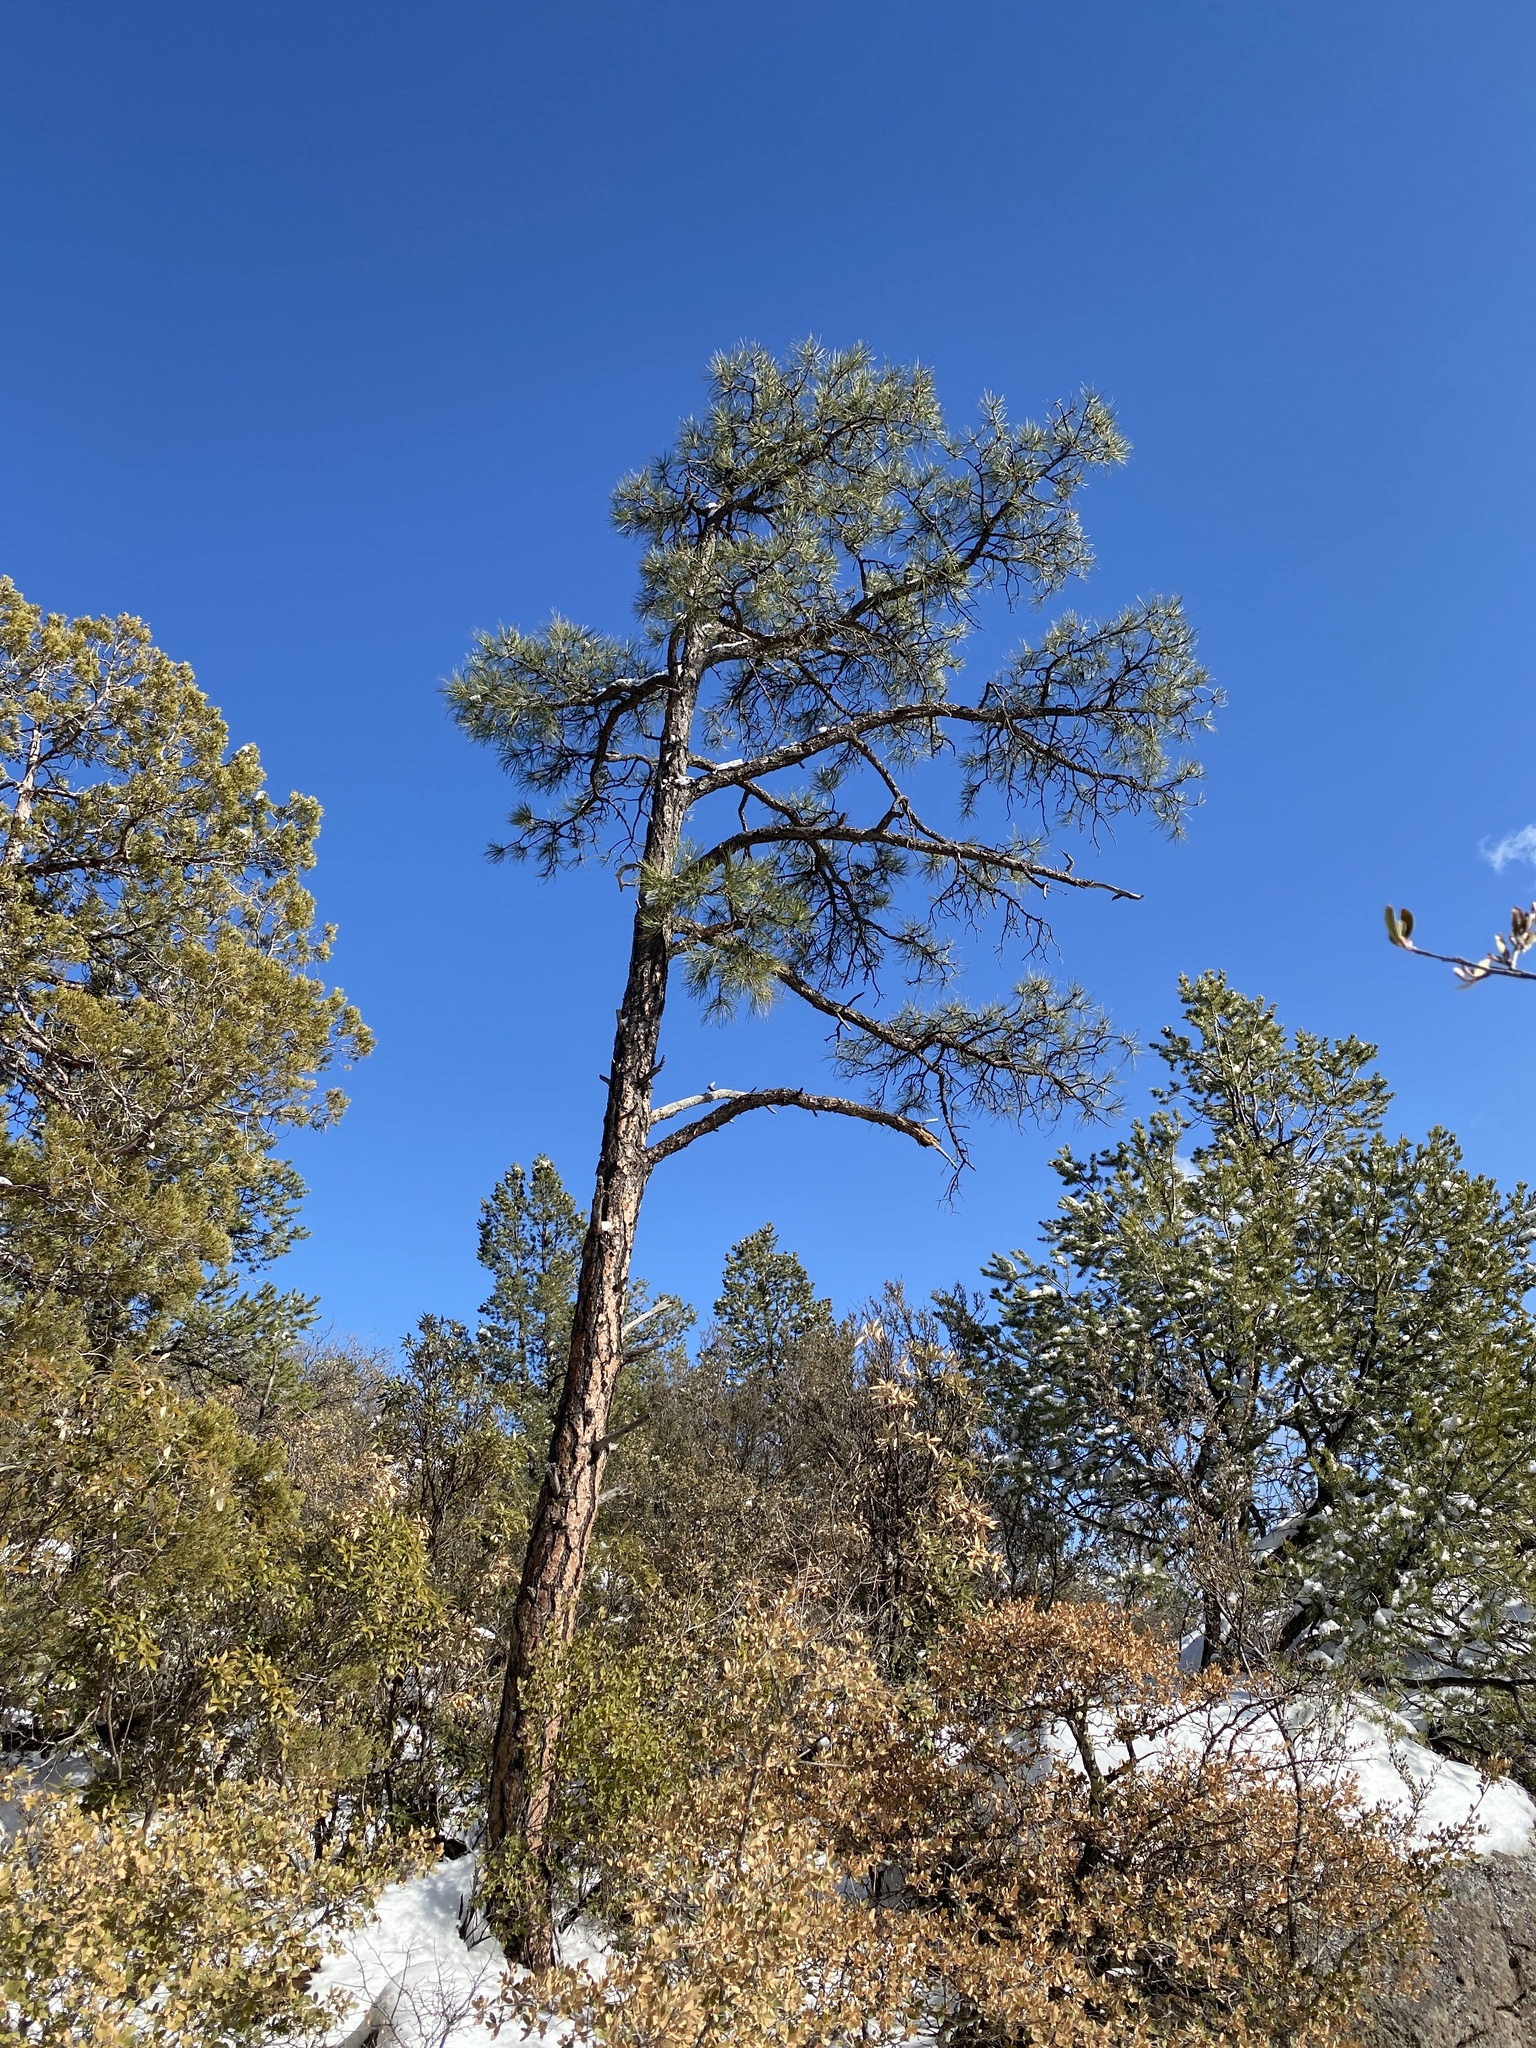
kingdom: Plantae
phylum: Tracheophyta
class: Pinopsida
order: Pinales
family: Pinaceae
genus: Pinus
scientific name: Pinus ponderosa
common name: Western yellow-pine
